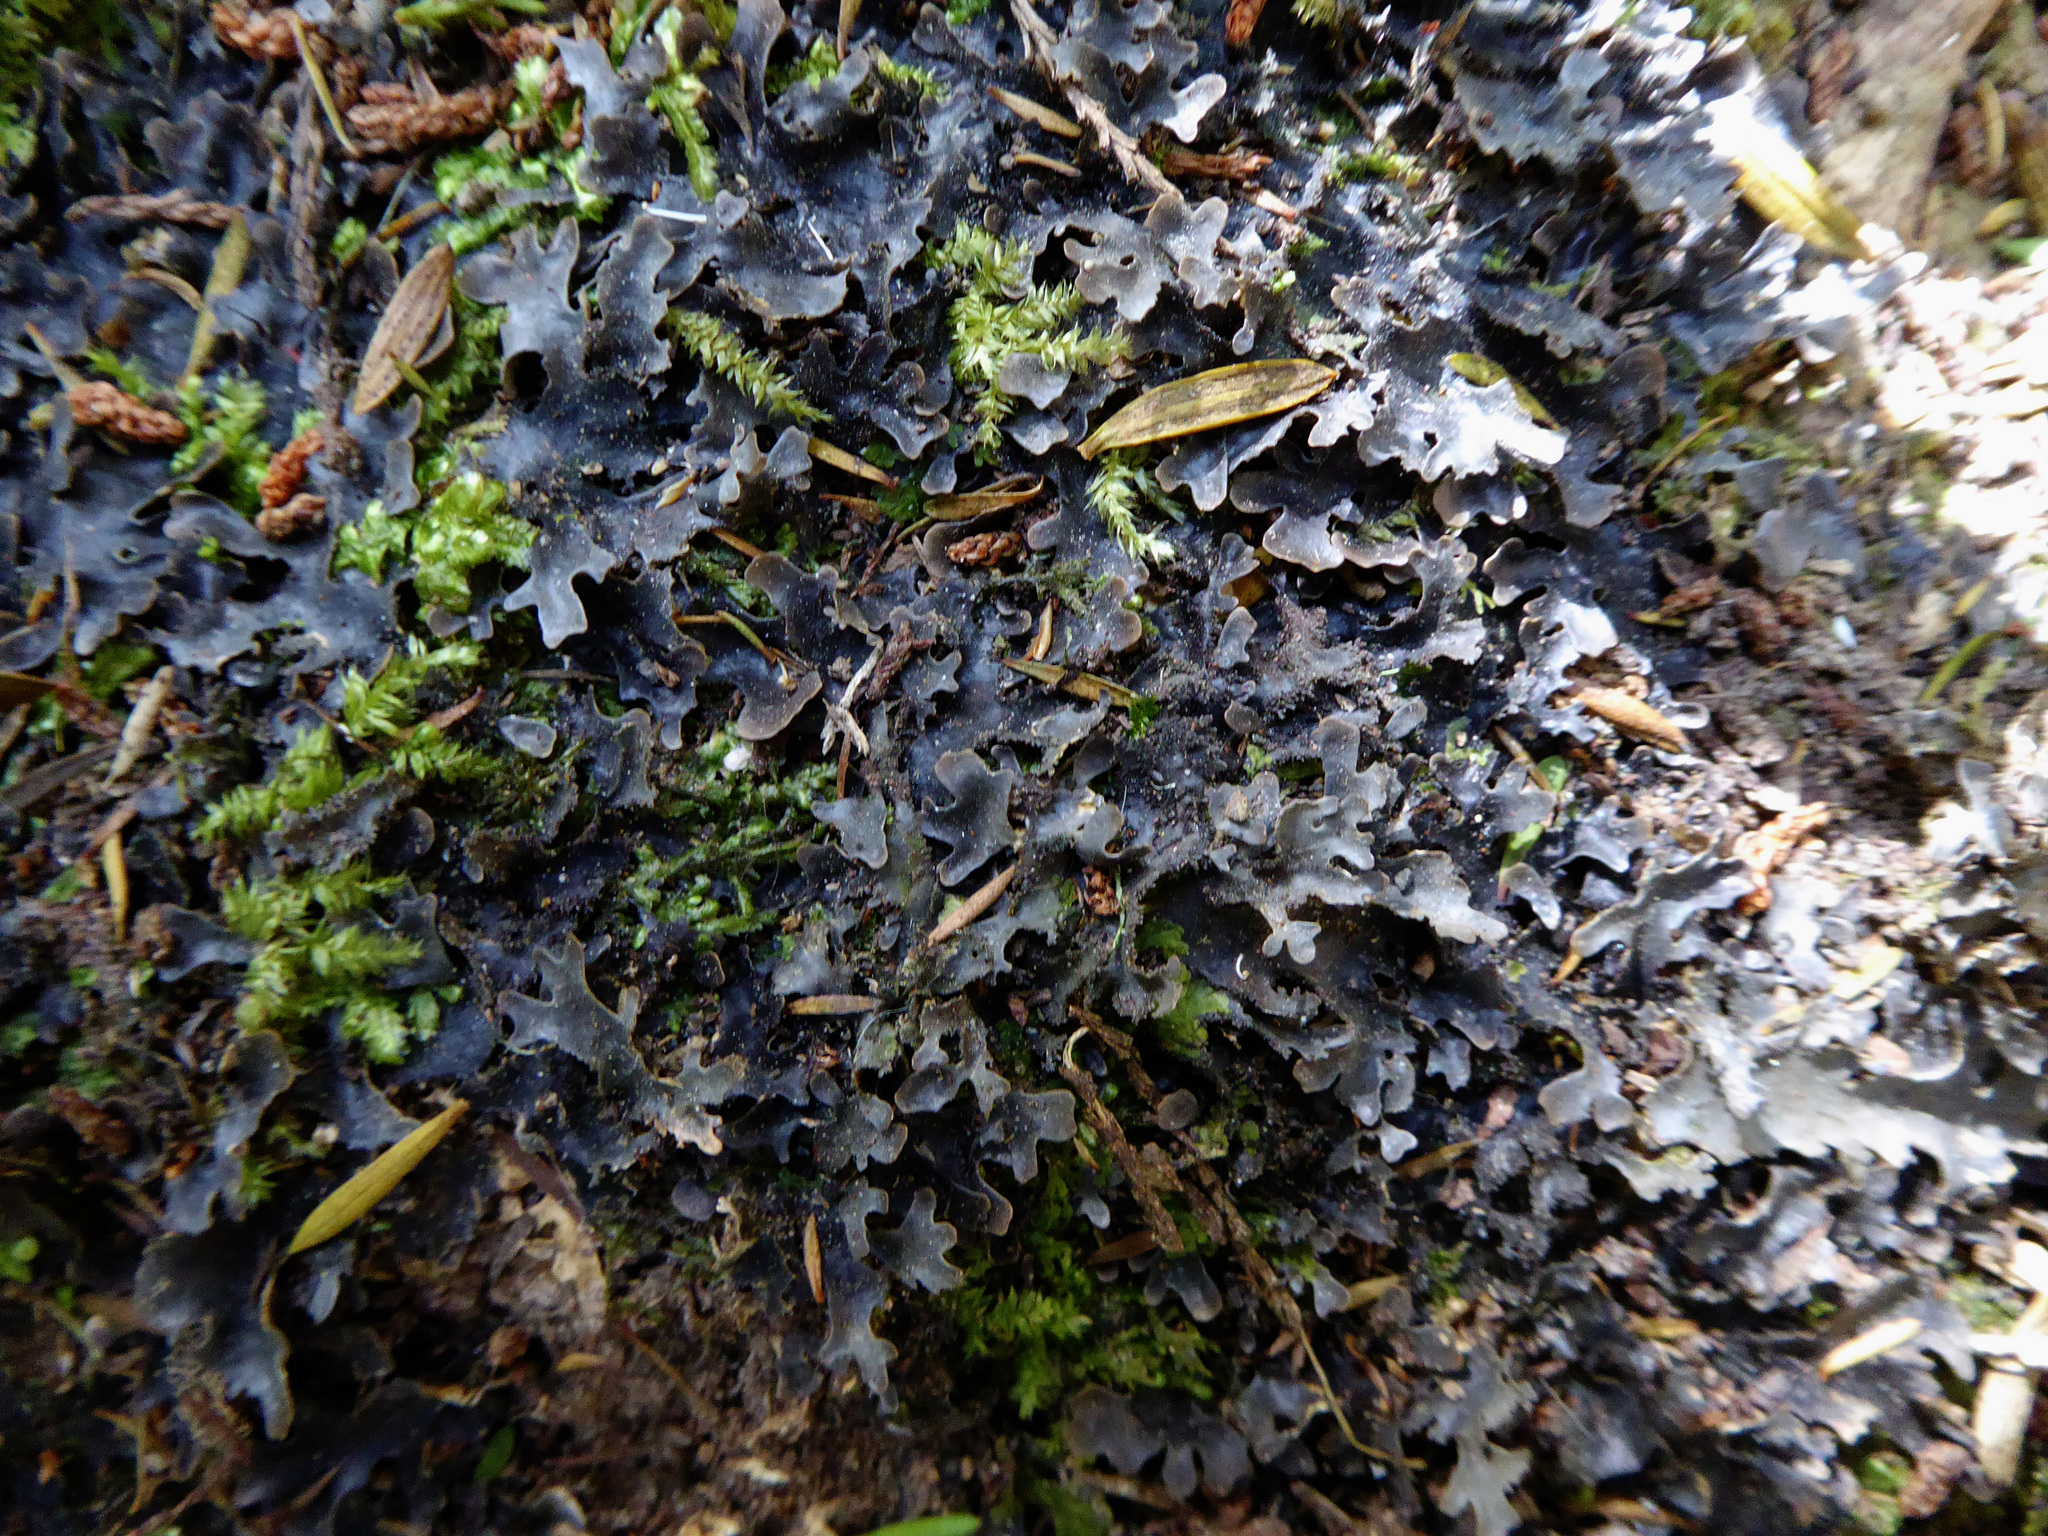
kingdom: Fungi
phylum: Ascomycota
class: Lecanoromycetes
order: Peltigerales
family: Lobariaceae
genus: Pseudocyphellaria
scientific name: Pseudocyphellaria dissimilis
